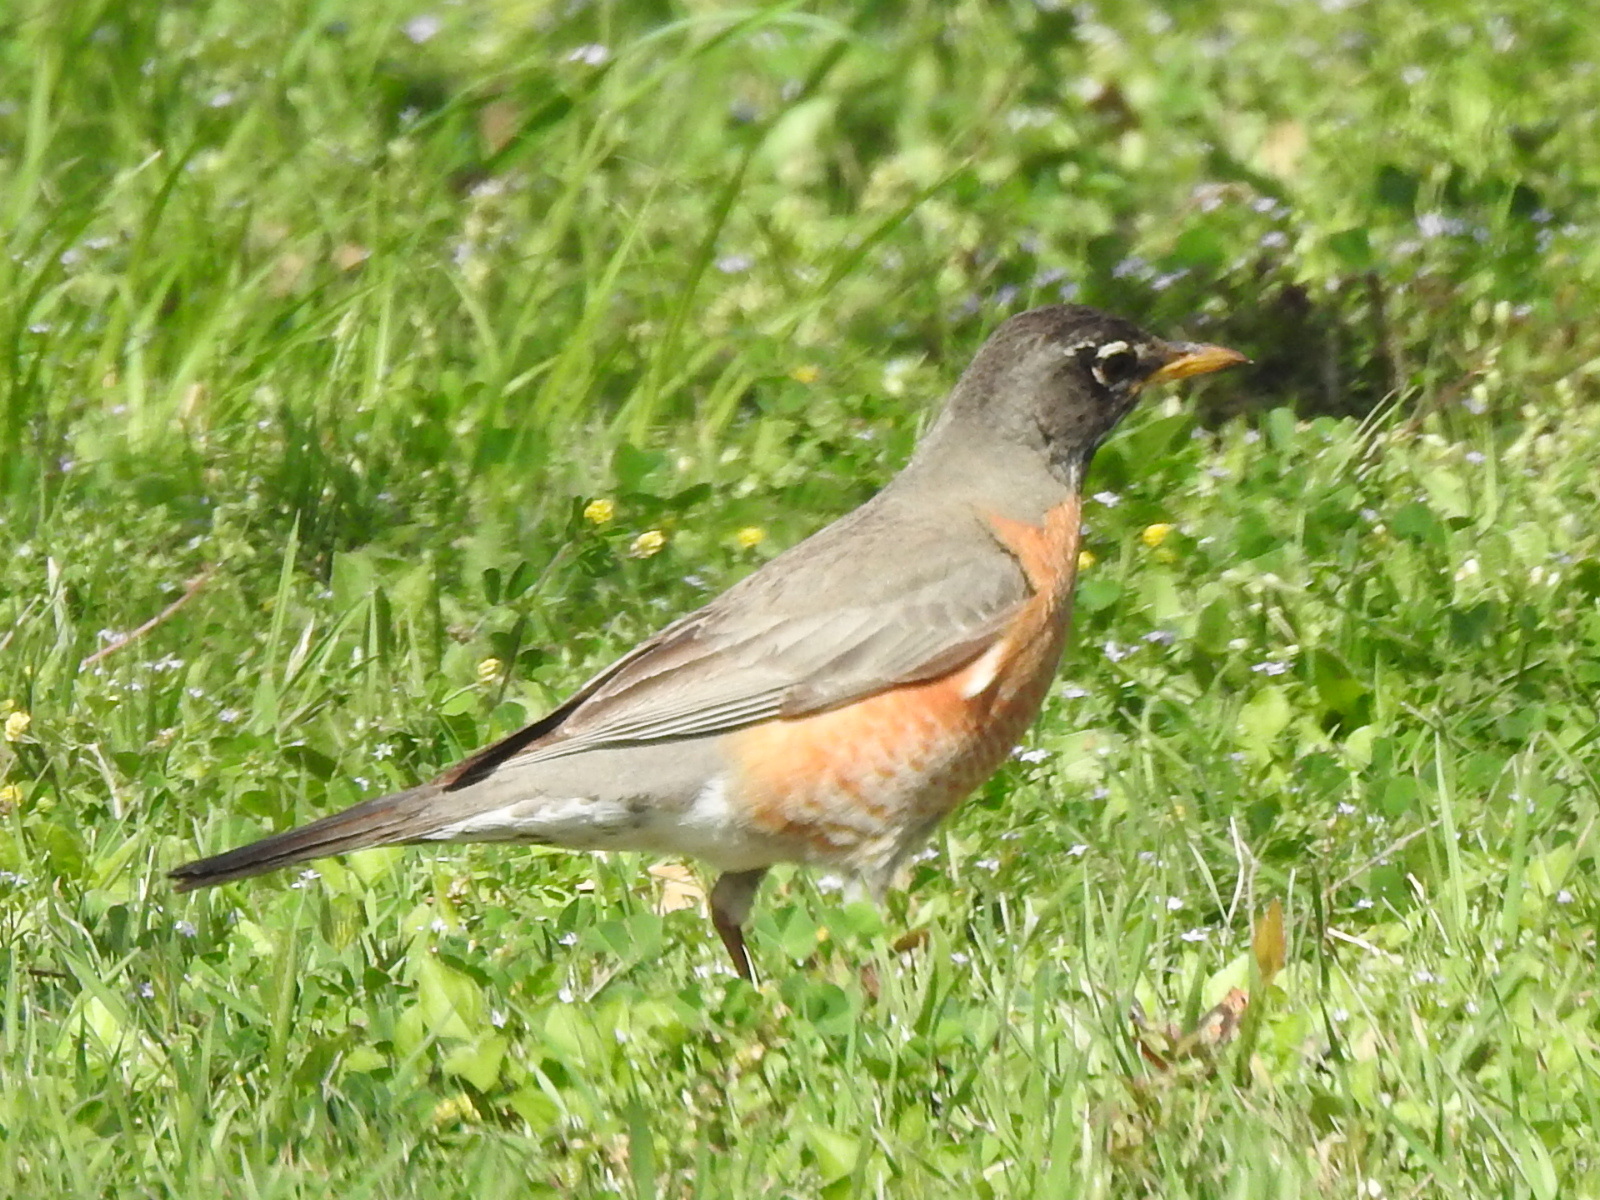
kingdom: Animalia
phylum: Chordata
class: Aves
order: Passeriformes
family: Turdidae
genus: Turdus
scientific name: Turdus migratorius
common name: American robin
